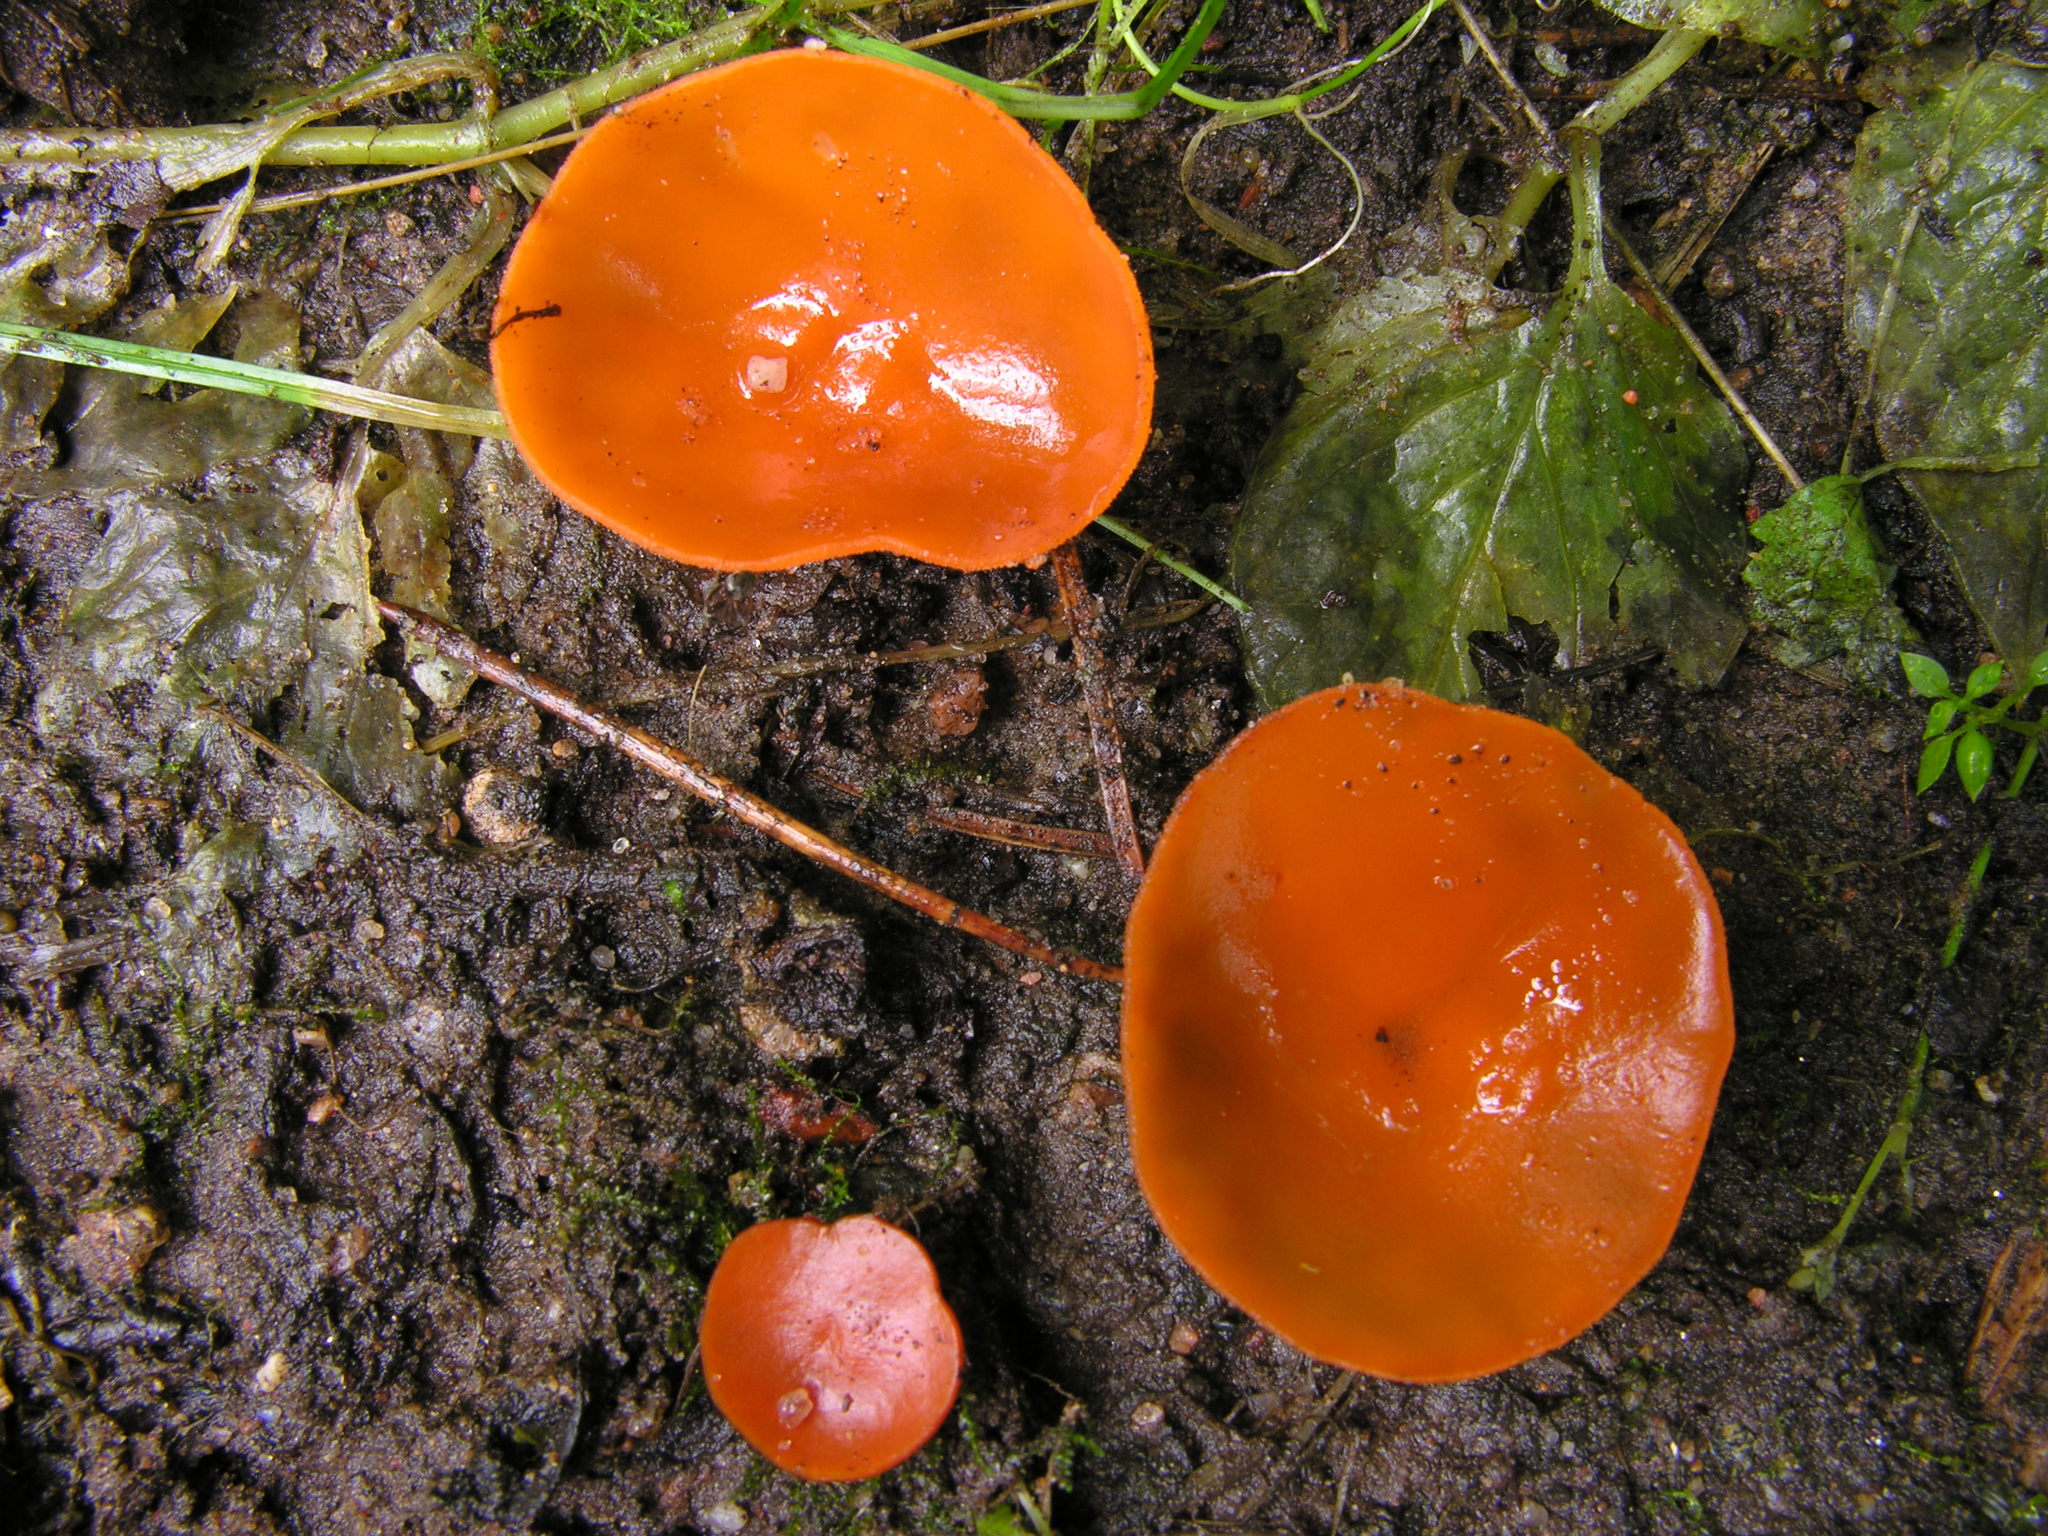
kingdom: Fungi
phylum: Ascomycota
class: Pezizomycetes
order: Pezizales
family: Pyronemataceae
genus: Aleuria
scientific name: Aleuria aurantia
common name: Orange peel fungus
